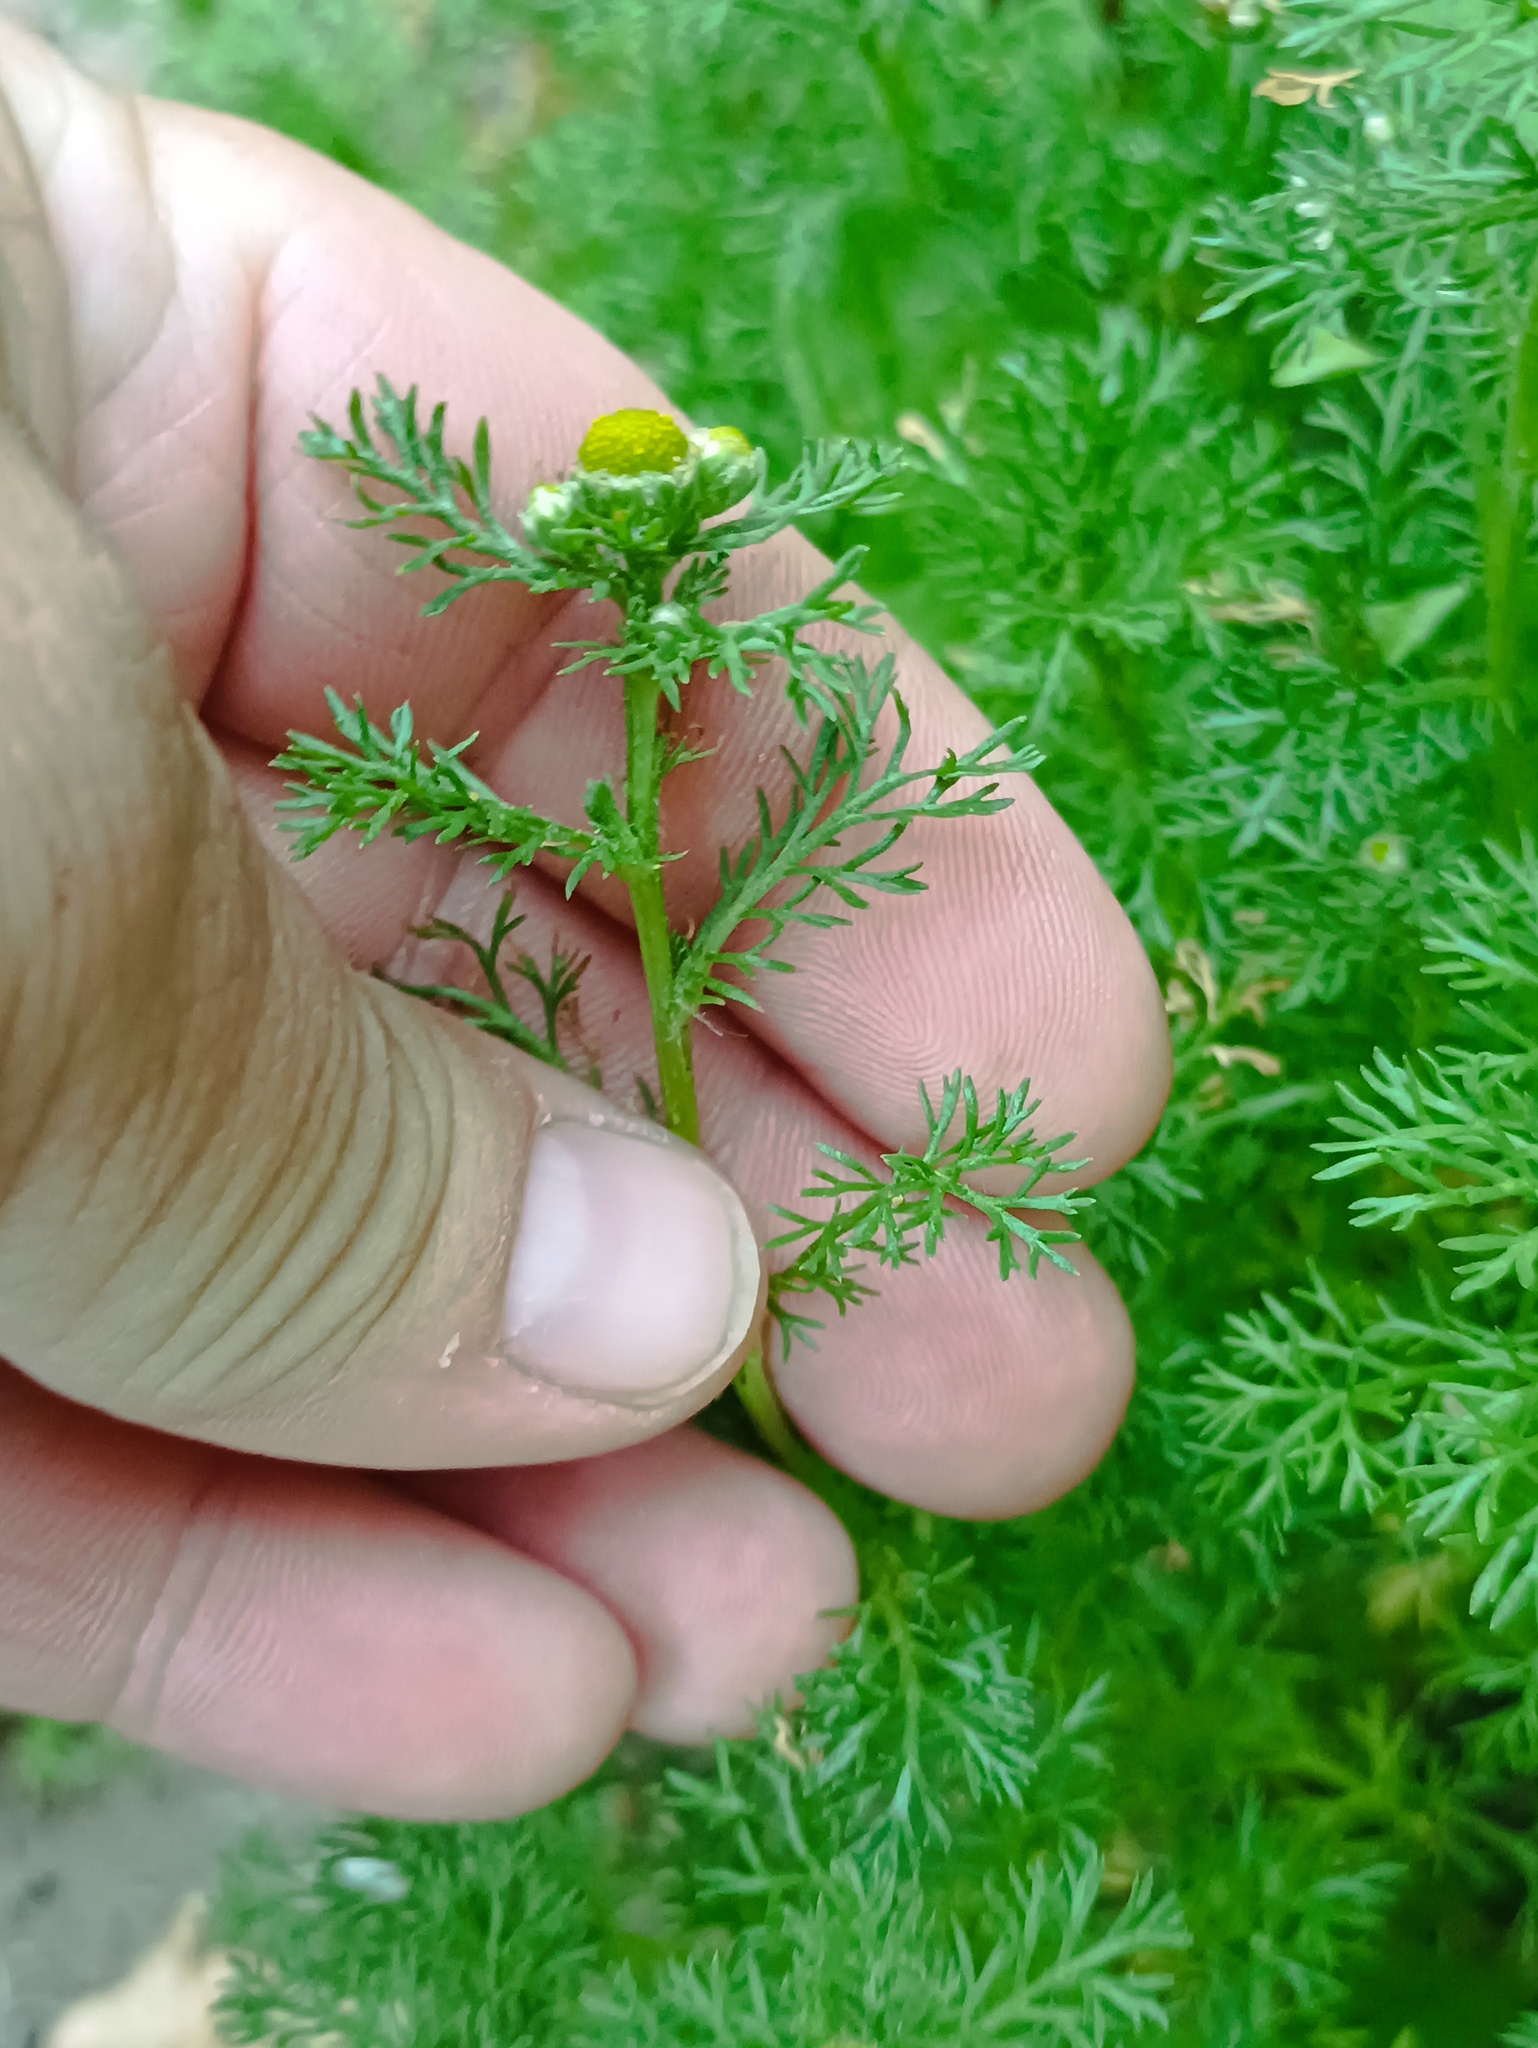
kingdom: Plantae
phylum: Tracheophyta
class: Magnoliopsida
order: Asterales
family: Asteraceae
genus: Matricaria
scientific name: Matricaria discoidea
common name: Disc mayweed
